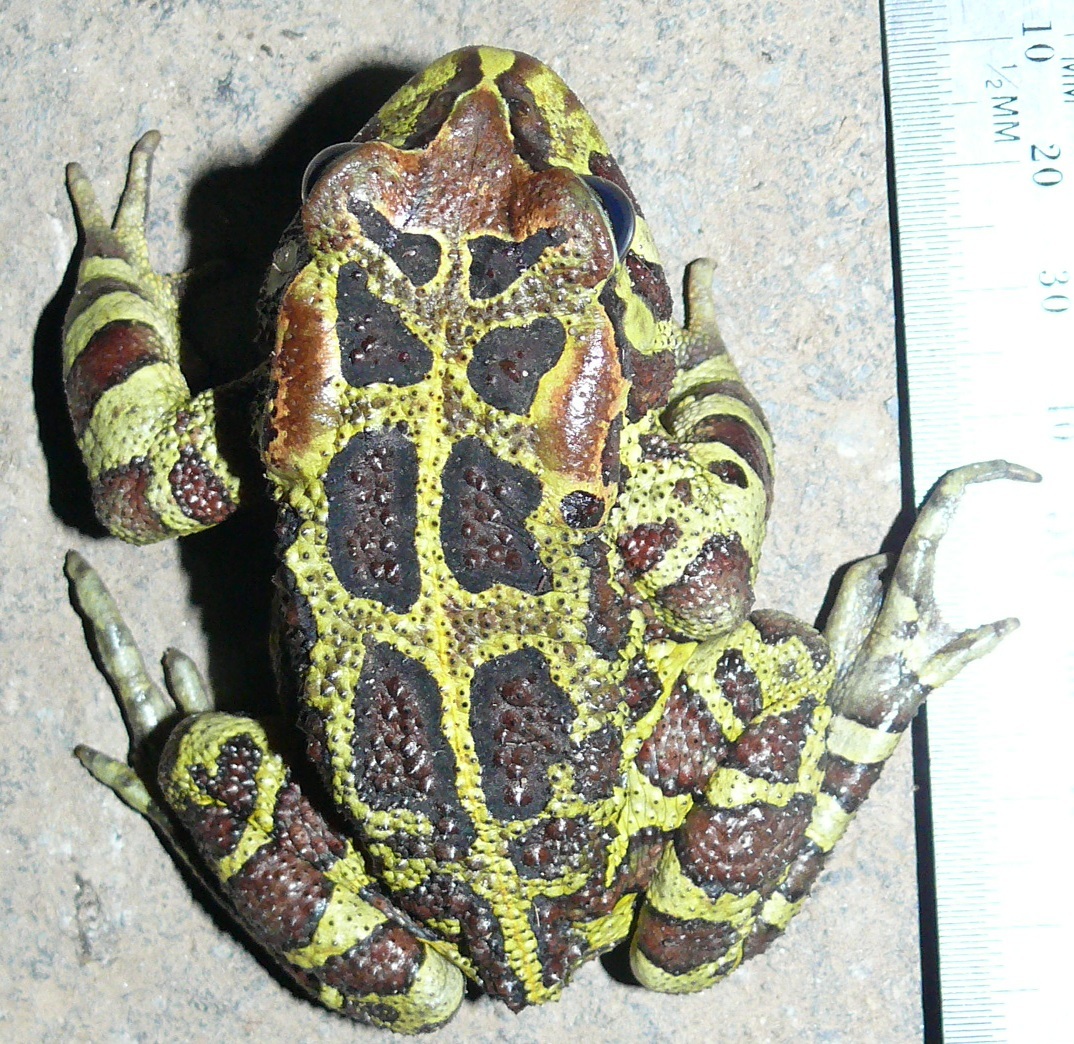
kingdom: Animalia
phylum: Chordata
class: Amphibia
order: Anura
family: Bufonidae
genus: Sclerophrys
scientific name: Sclerophrys pantherina
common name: Panther toad
